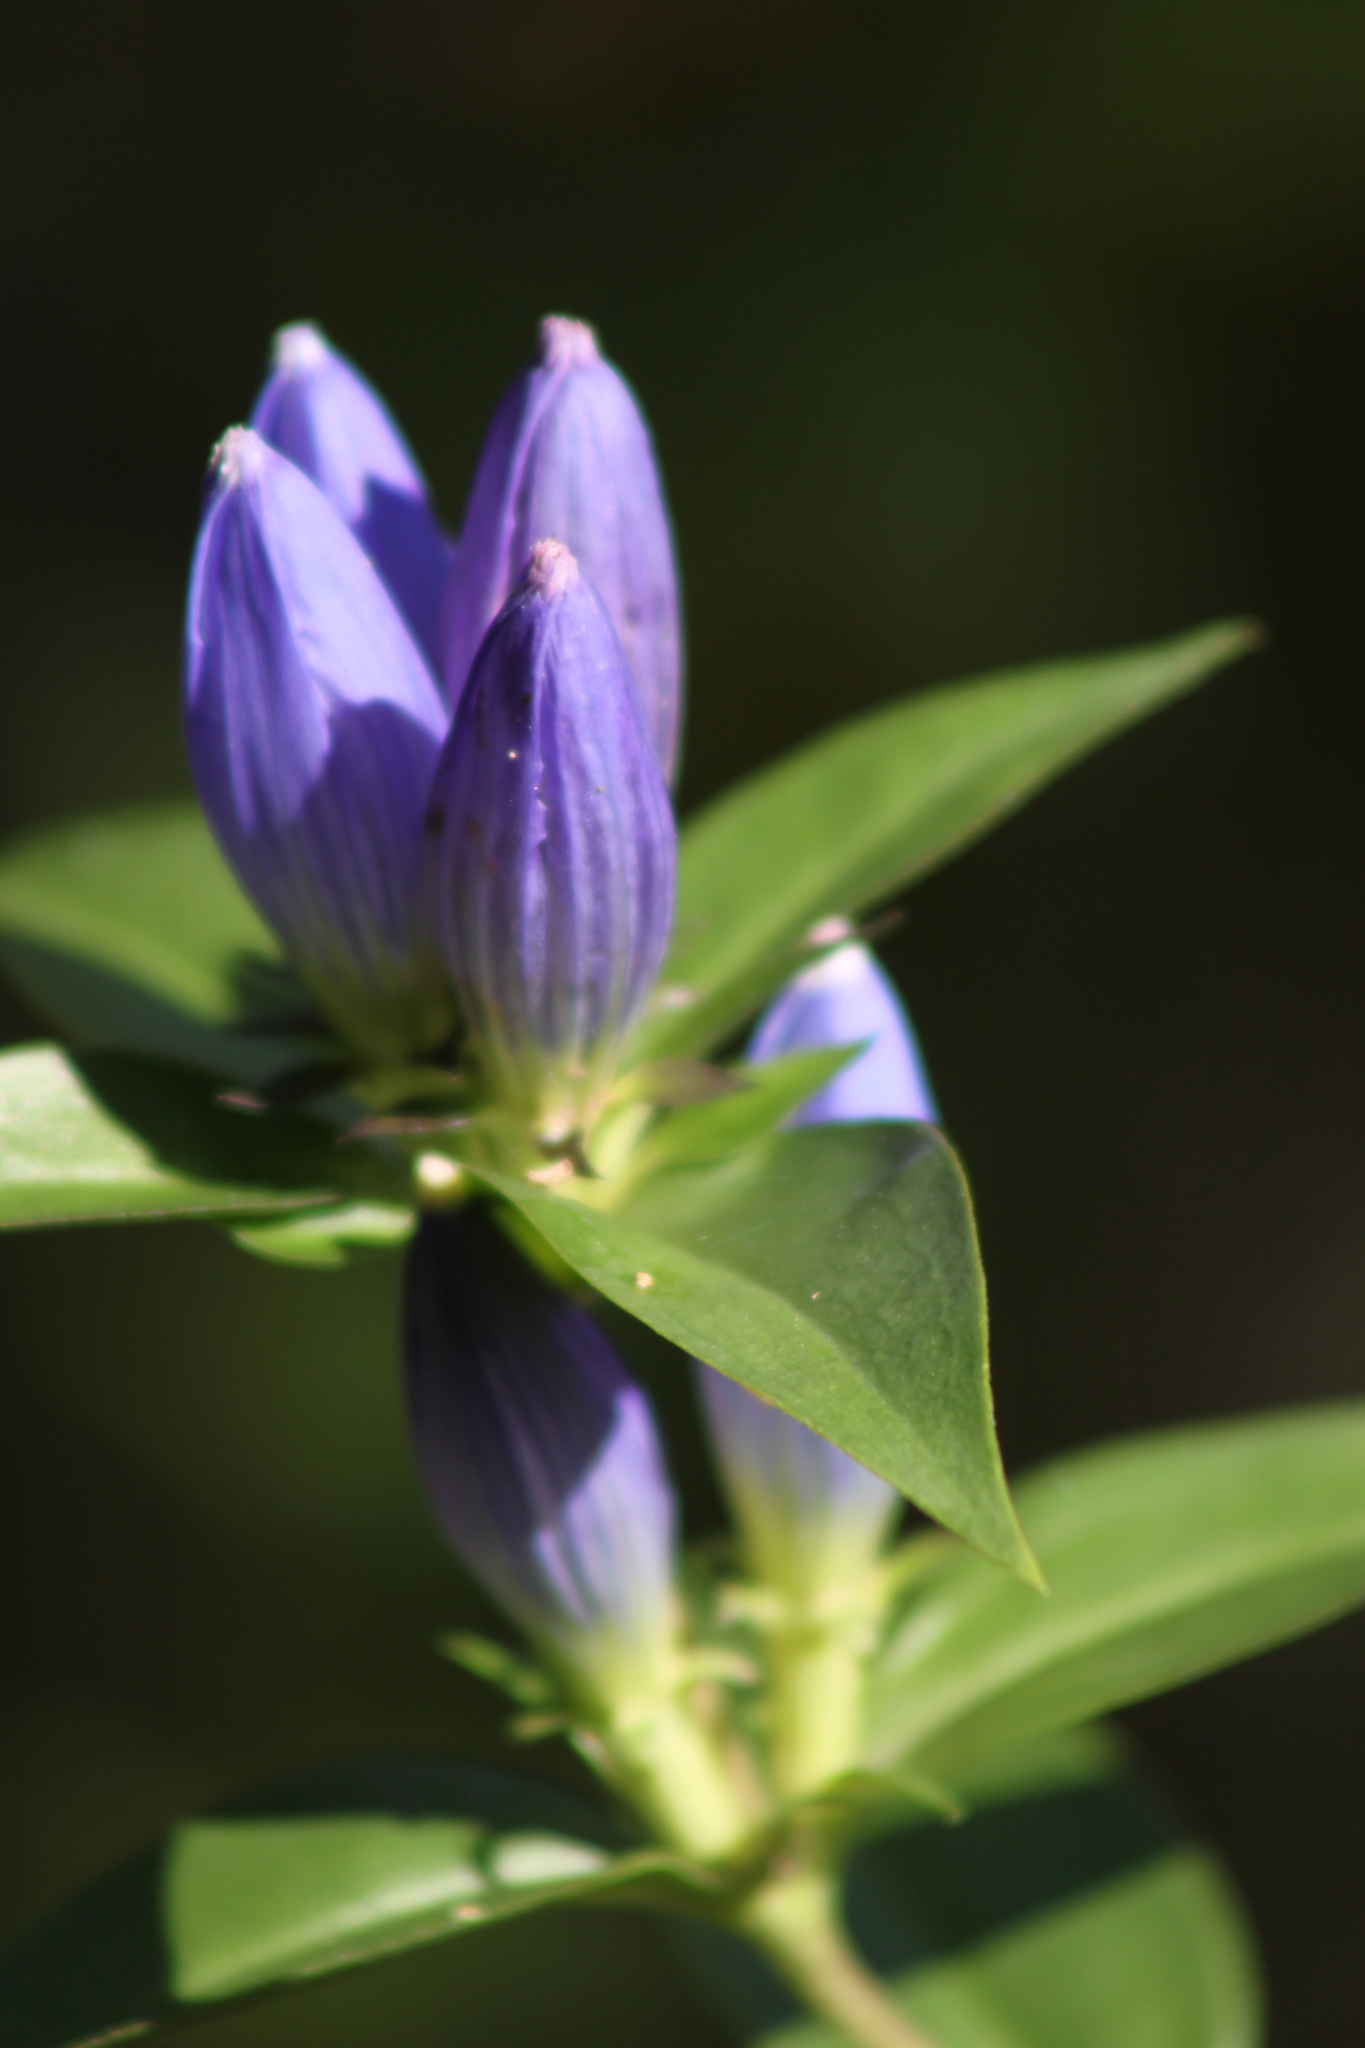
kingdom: Plantae
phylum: Tracheophyta
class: Magnoliopsida
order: Gentianales
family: Gentianaceae
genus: Gentiana
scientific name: Gentiana andrewsii
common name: Bottle gentian
